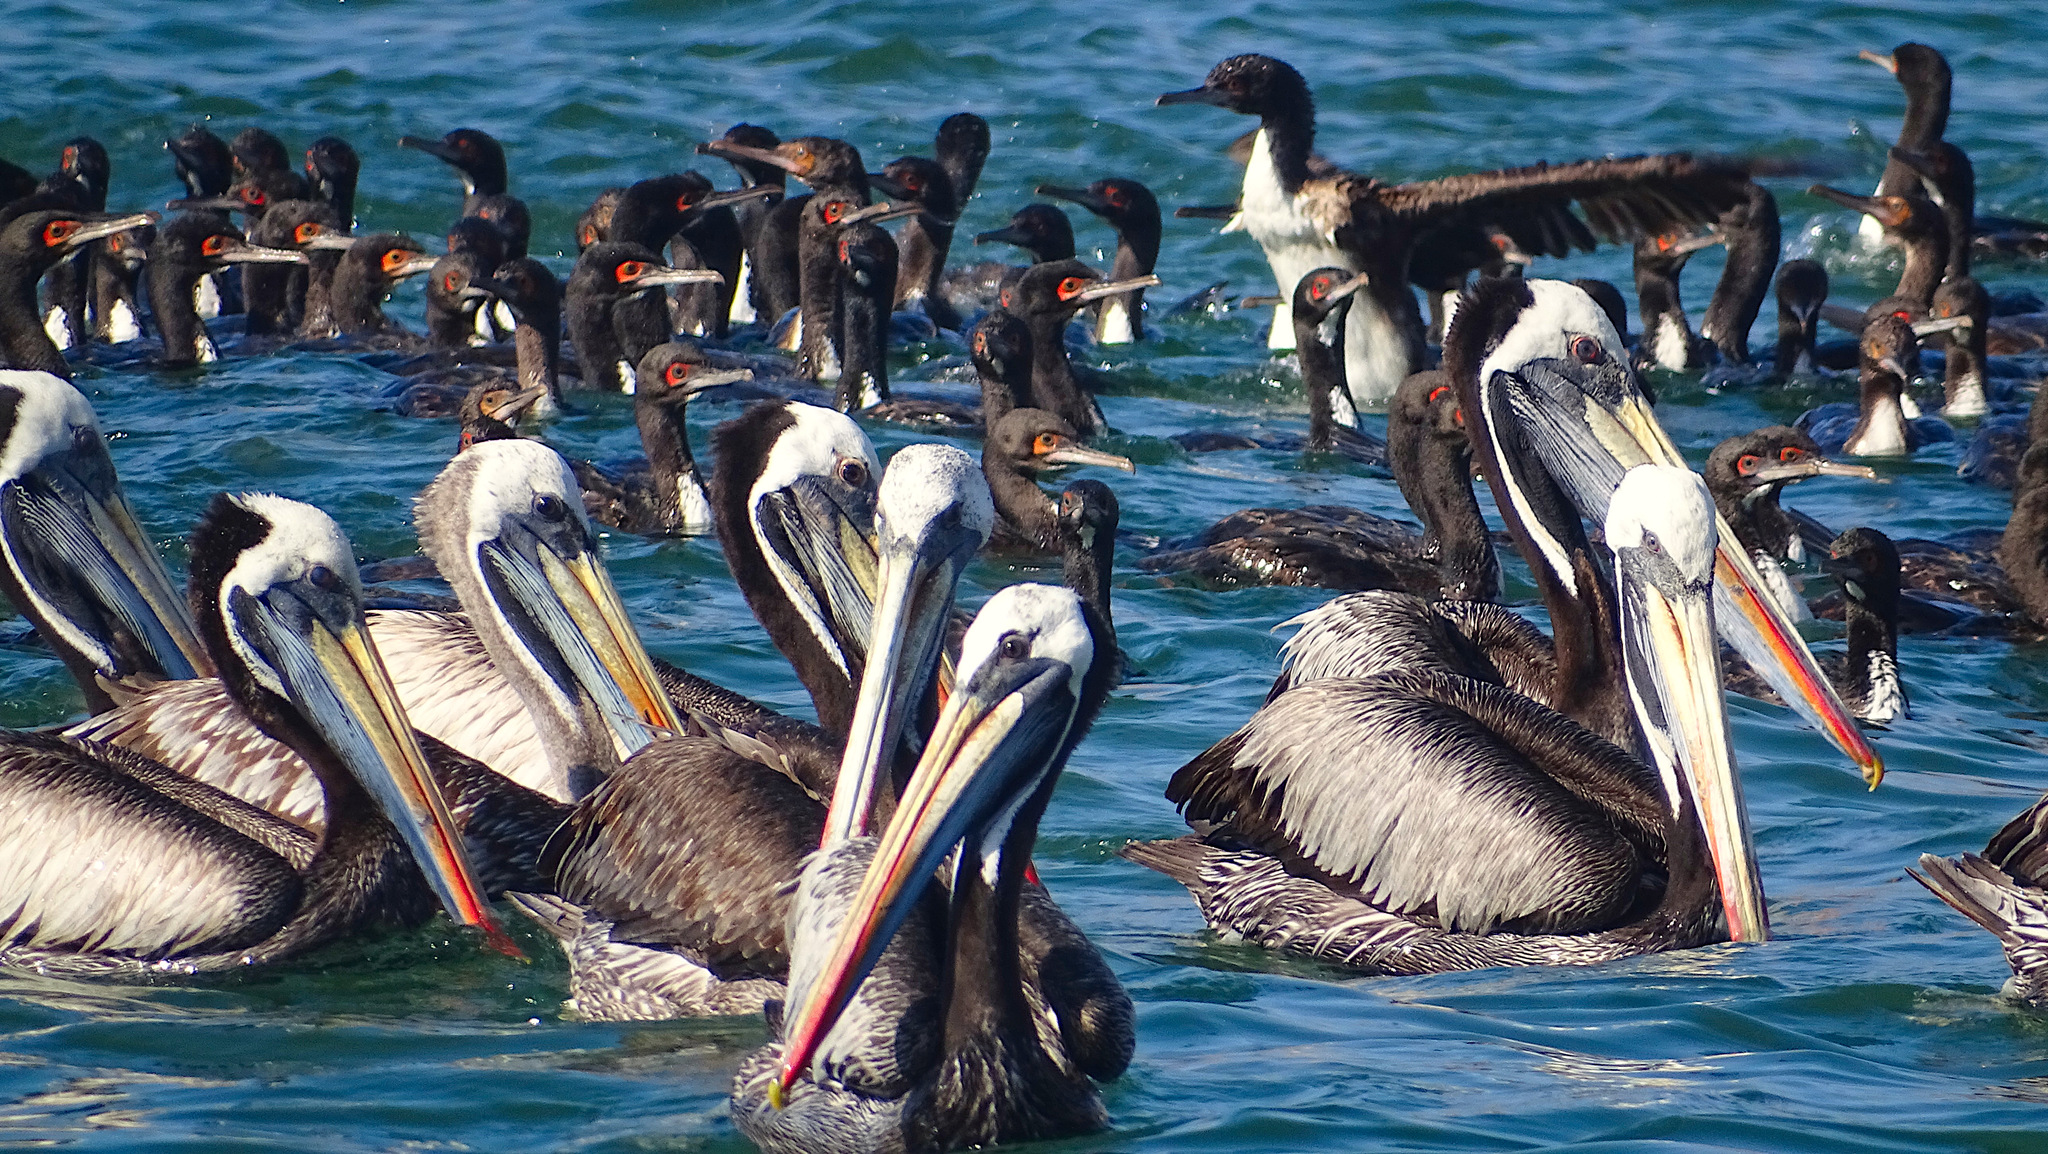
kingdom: Animalia
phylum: Chordata
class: Aves
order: Pelecaniformes
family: Pelecanidae
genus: Pelecanus
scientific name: Pelecanus thagus
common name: Peruvian pelican
